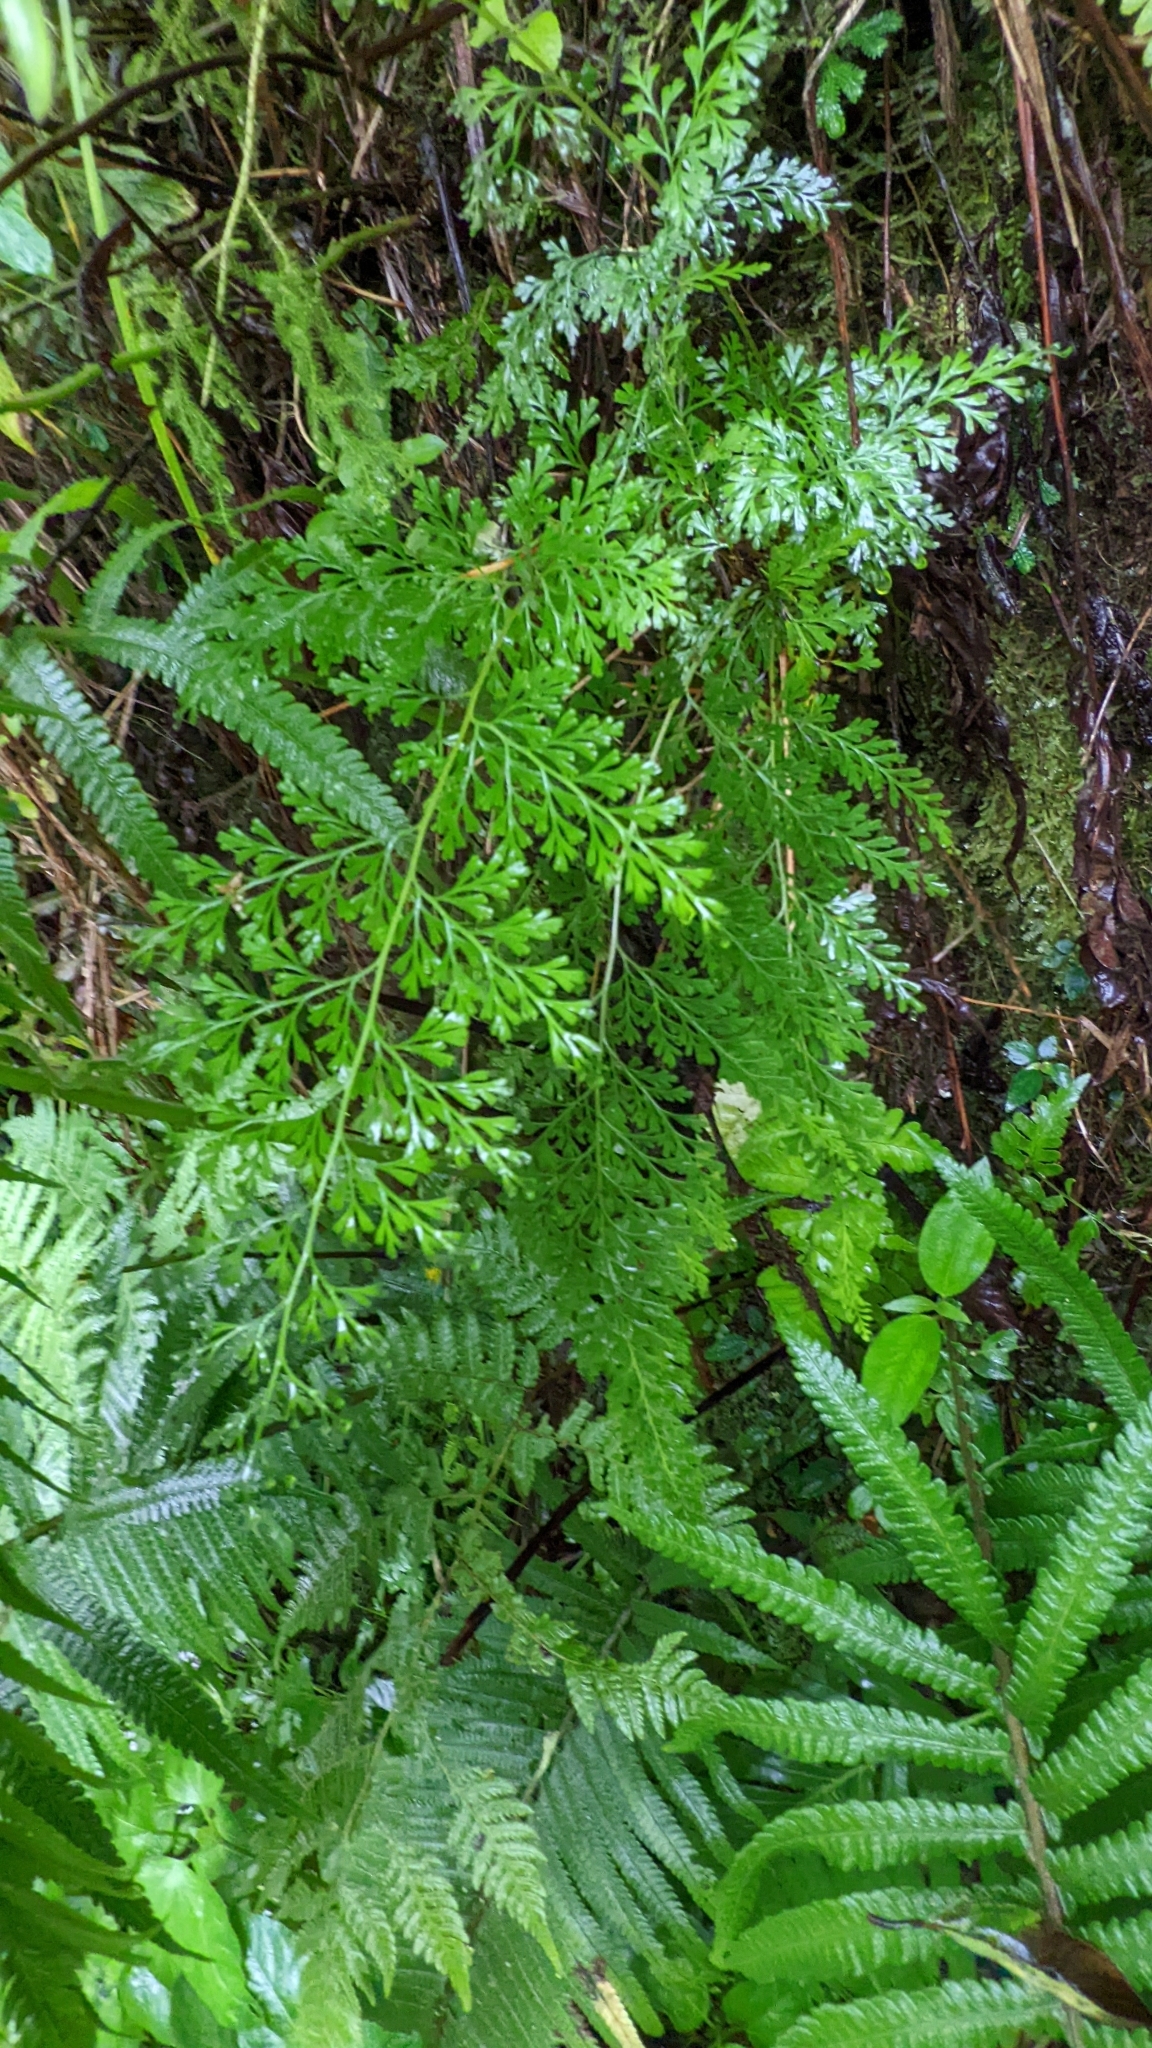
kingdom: Plantae
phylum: Tracheophyta
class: Polypodiopsida
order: Polypodiales
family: Lindsaeaceae
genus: Odontosoria
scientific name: Odontosoria chinensis
